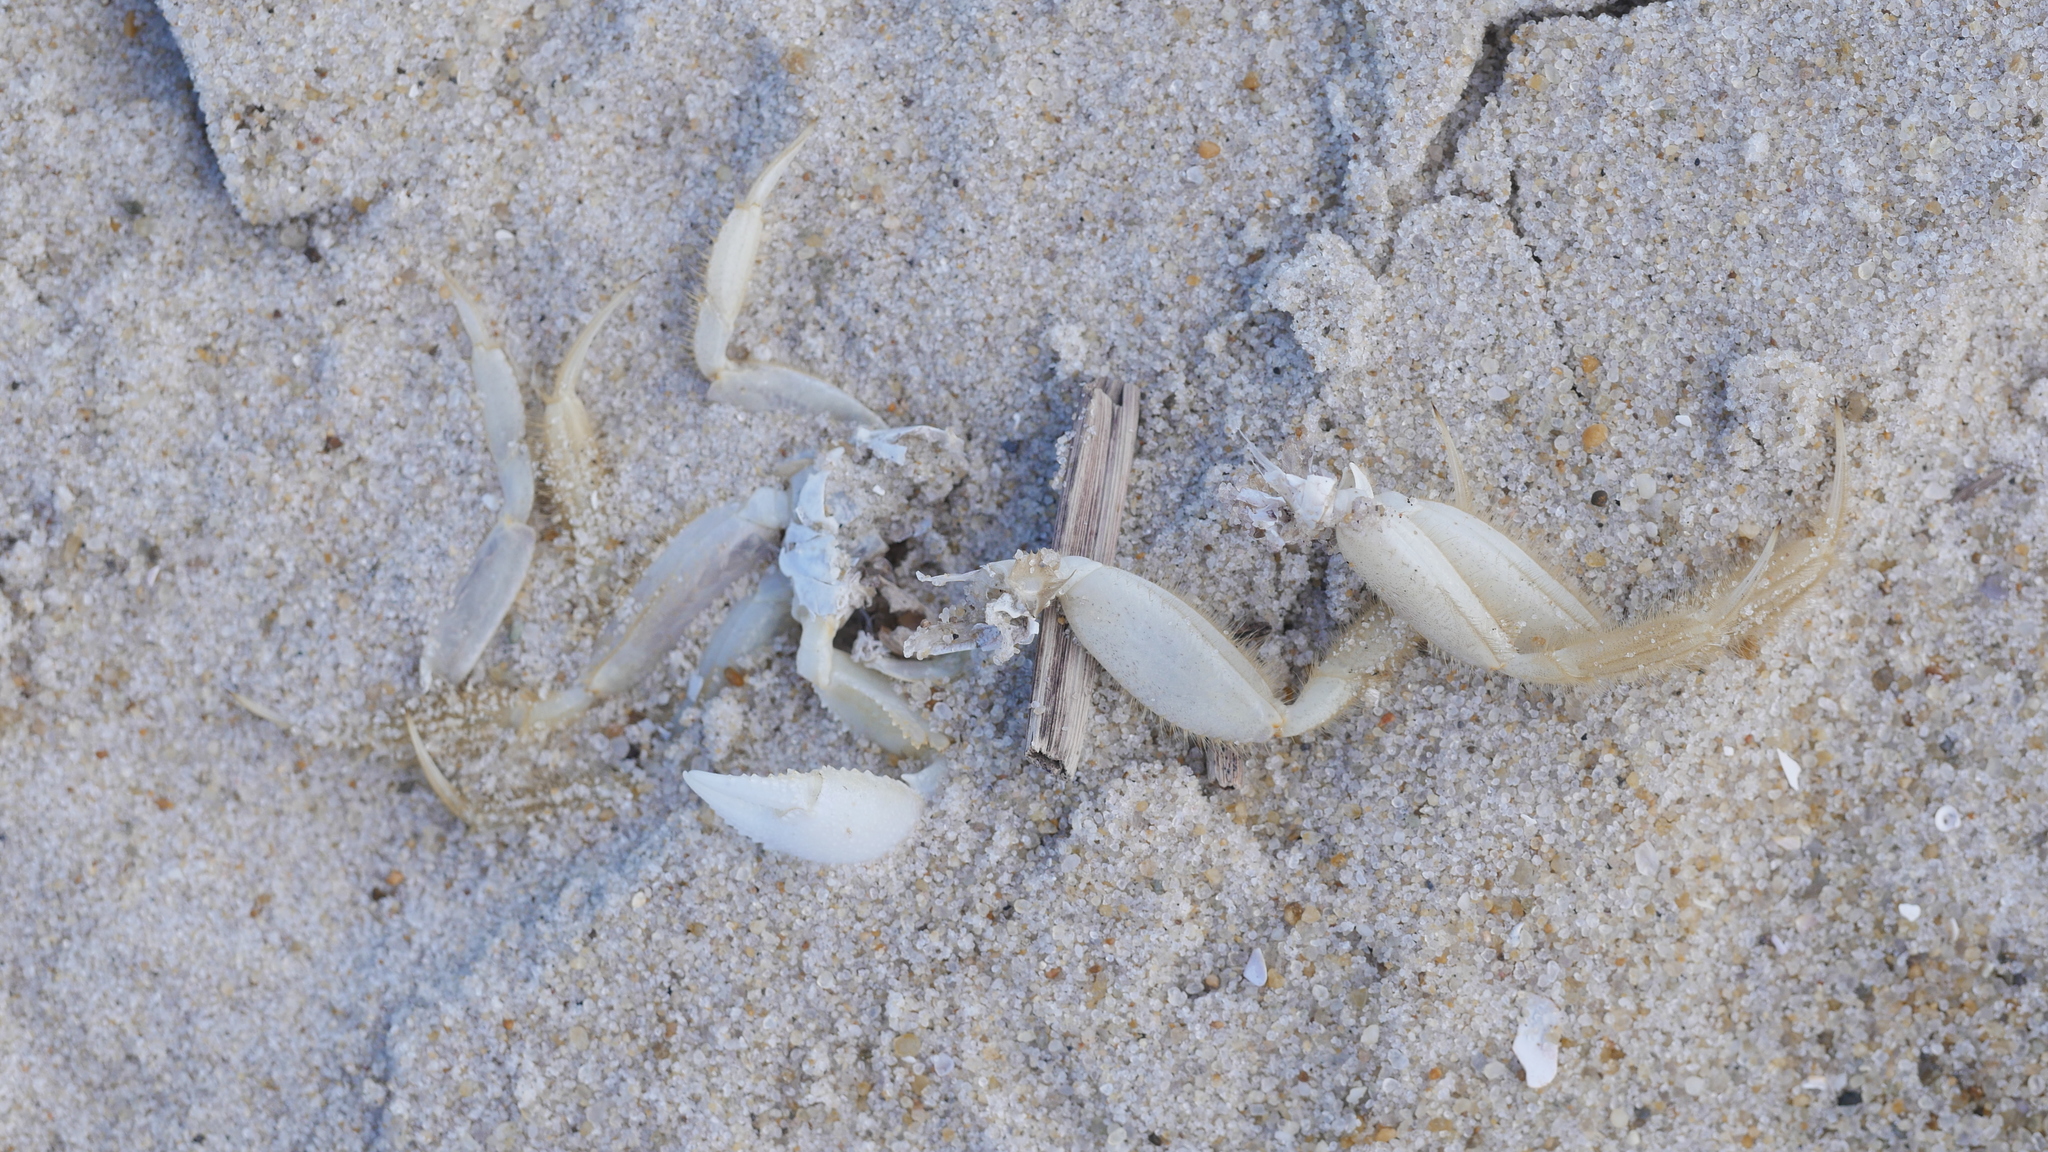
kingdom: Animalia
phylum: Arthropoda
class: Malacostraca
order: Decapoda
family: Ocypodidae
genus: Ocypode
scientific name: Ocypode quadrata
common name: Ghost crab
